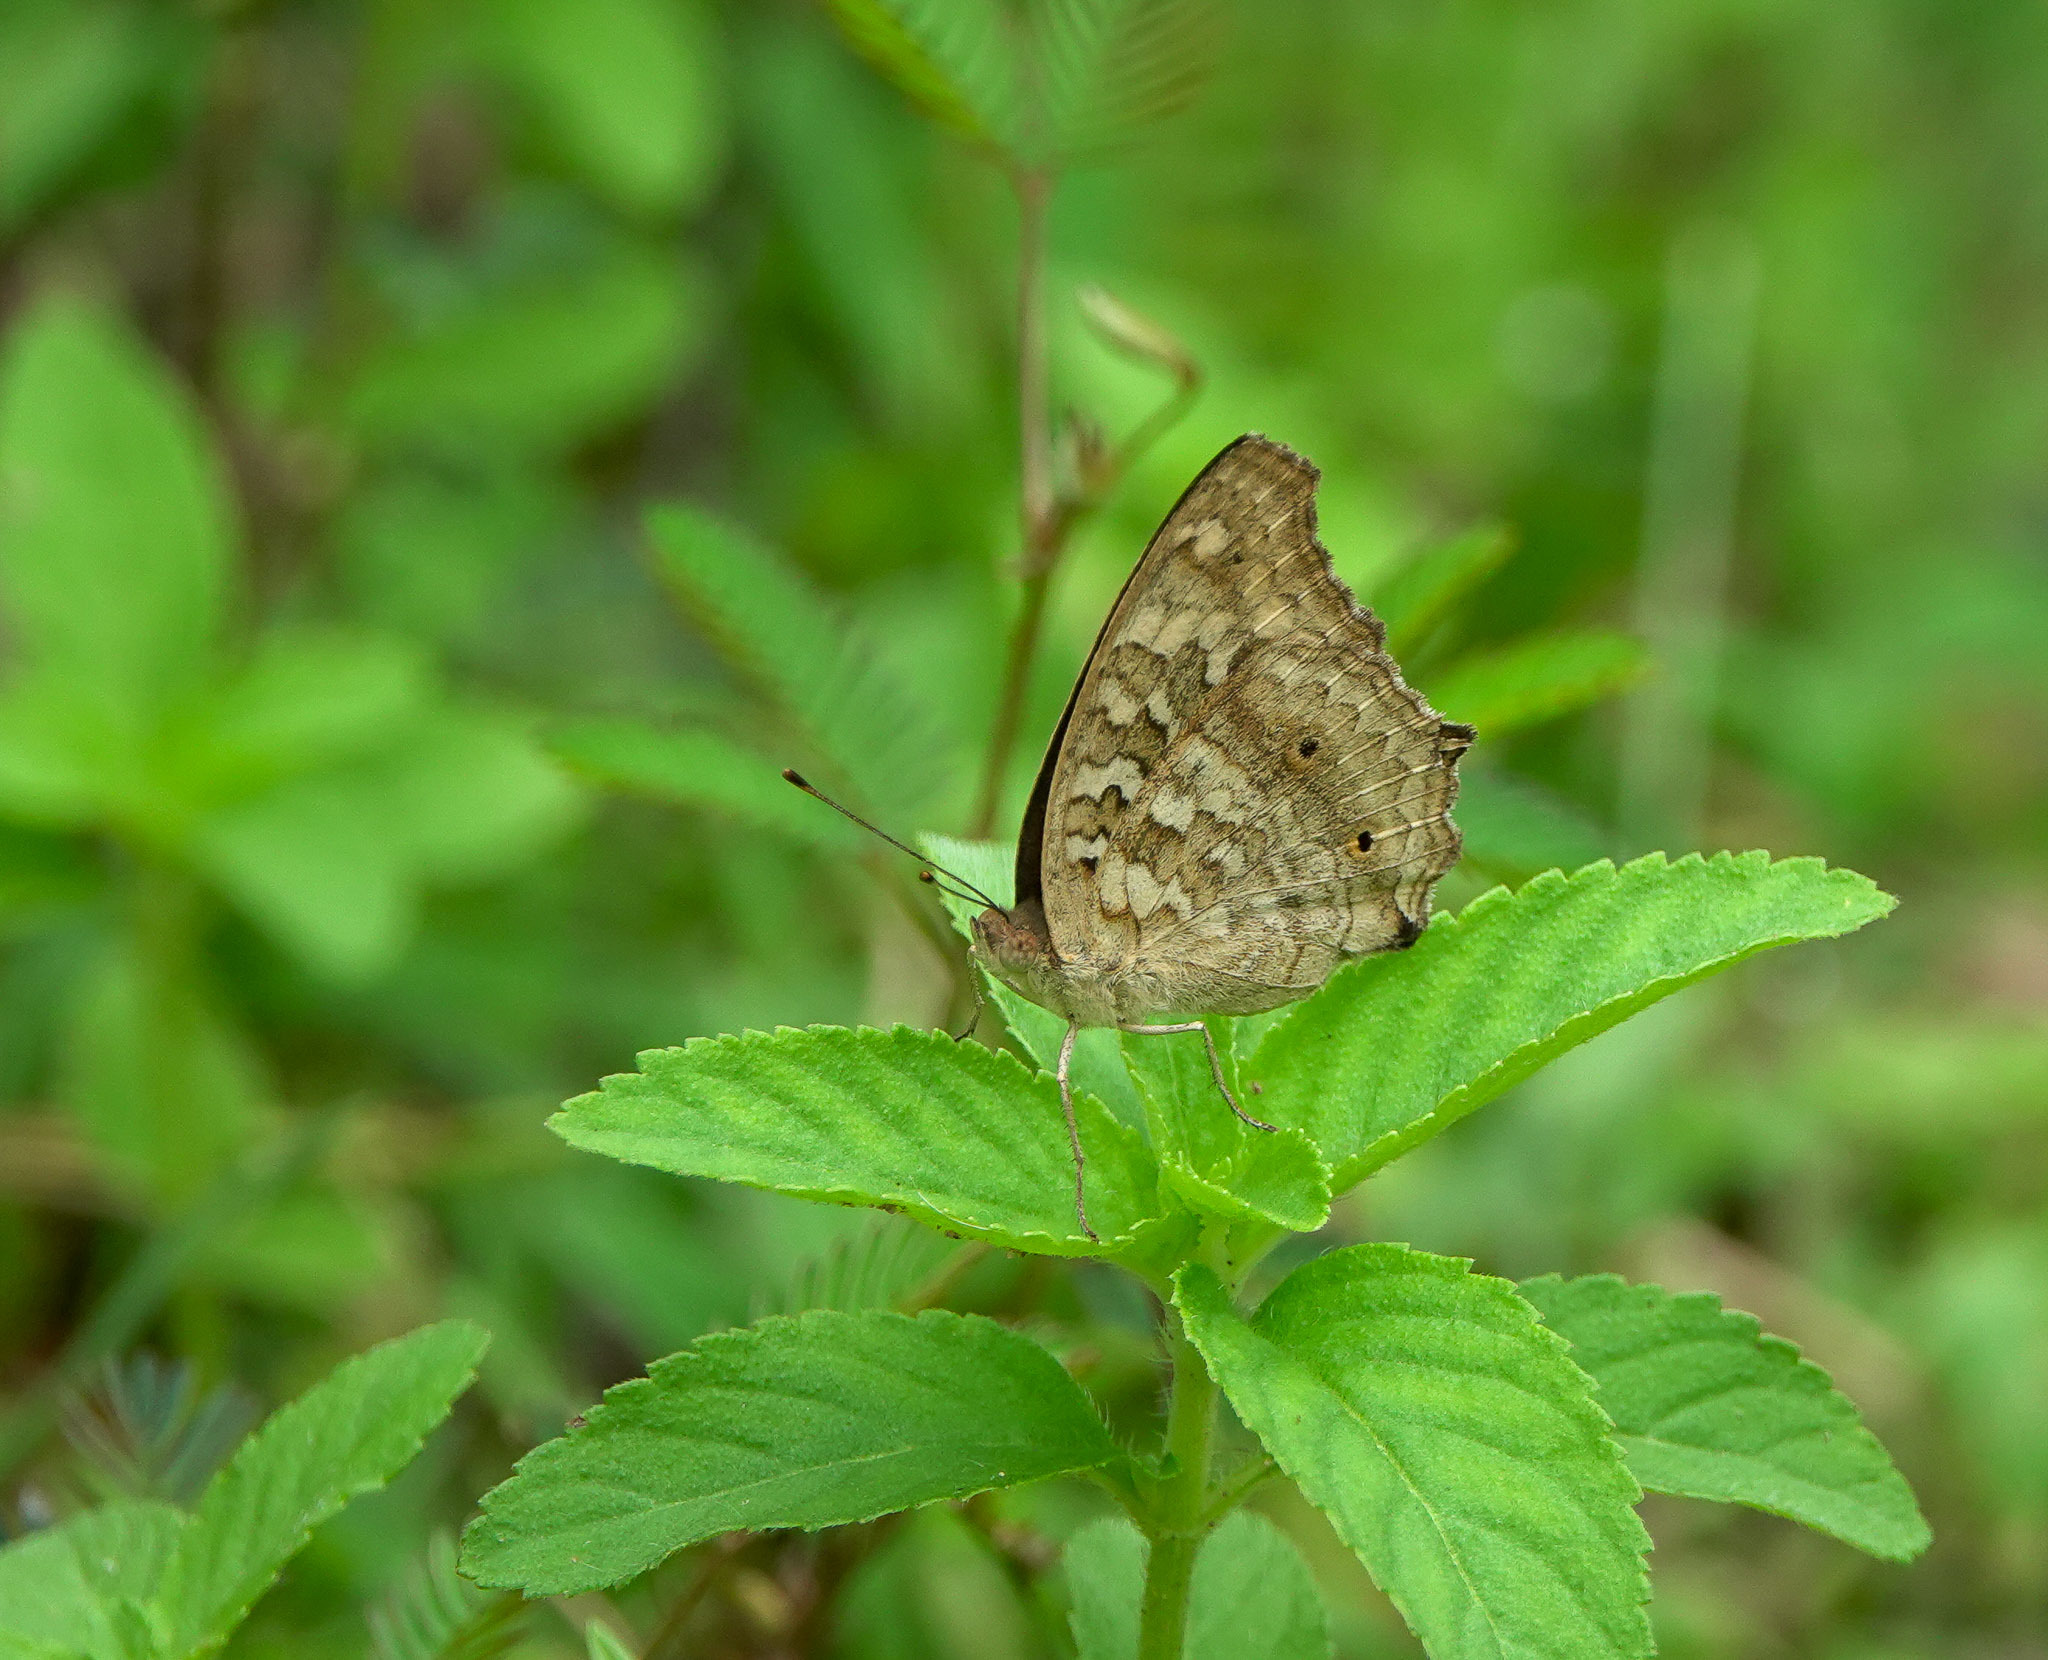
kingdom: Animalia
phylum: Arthropoda
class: Insecta
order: Lepidoptera
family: Nymphalidae
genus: Junonia
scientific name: Junonia lemonias
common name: Lemon pansy
